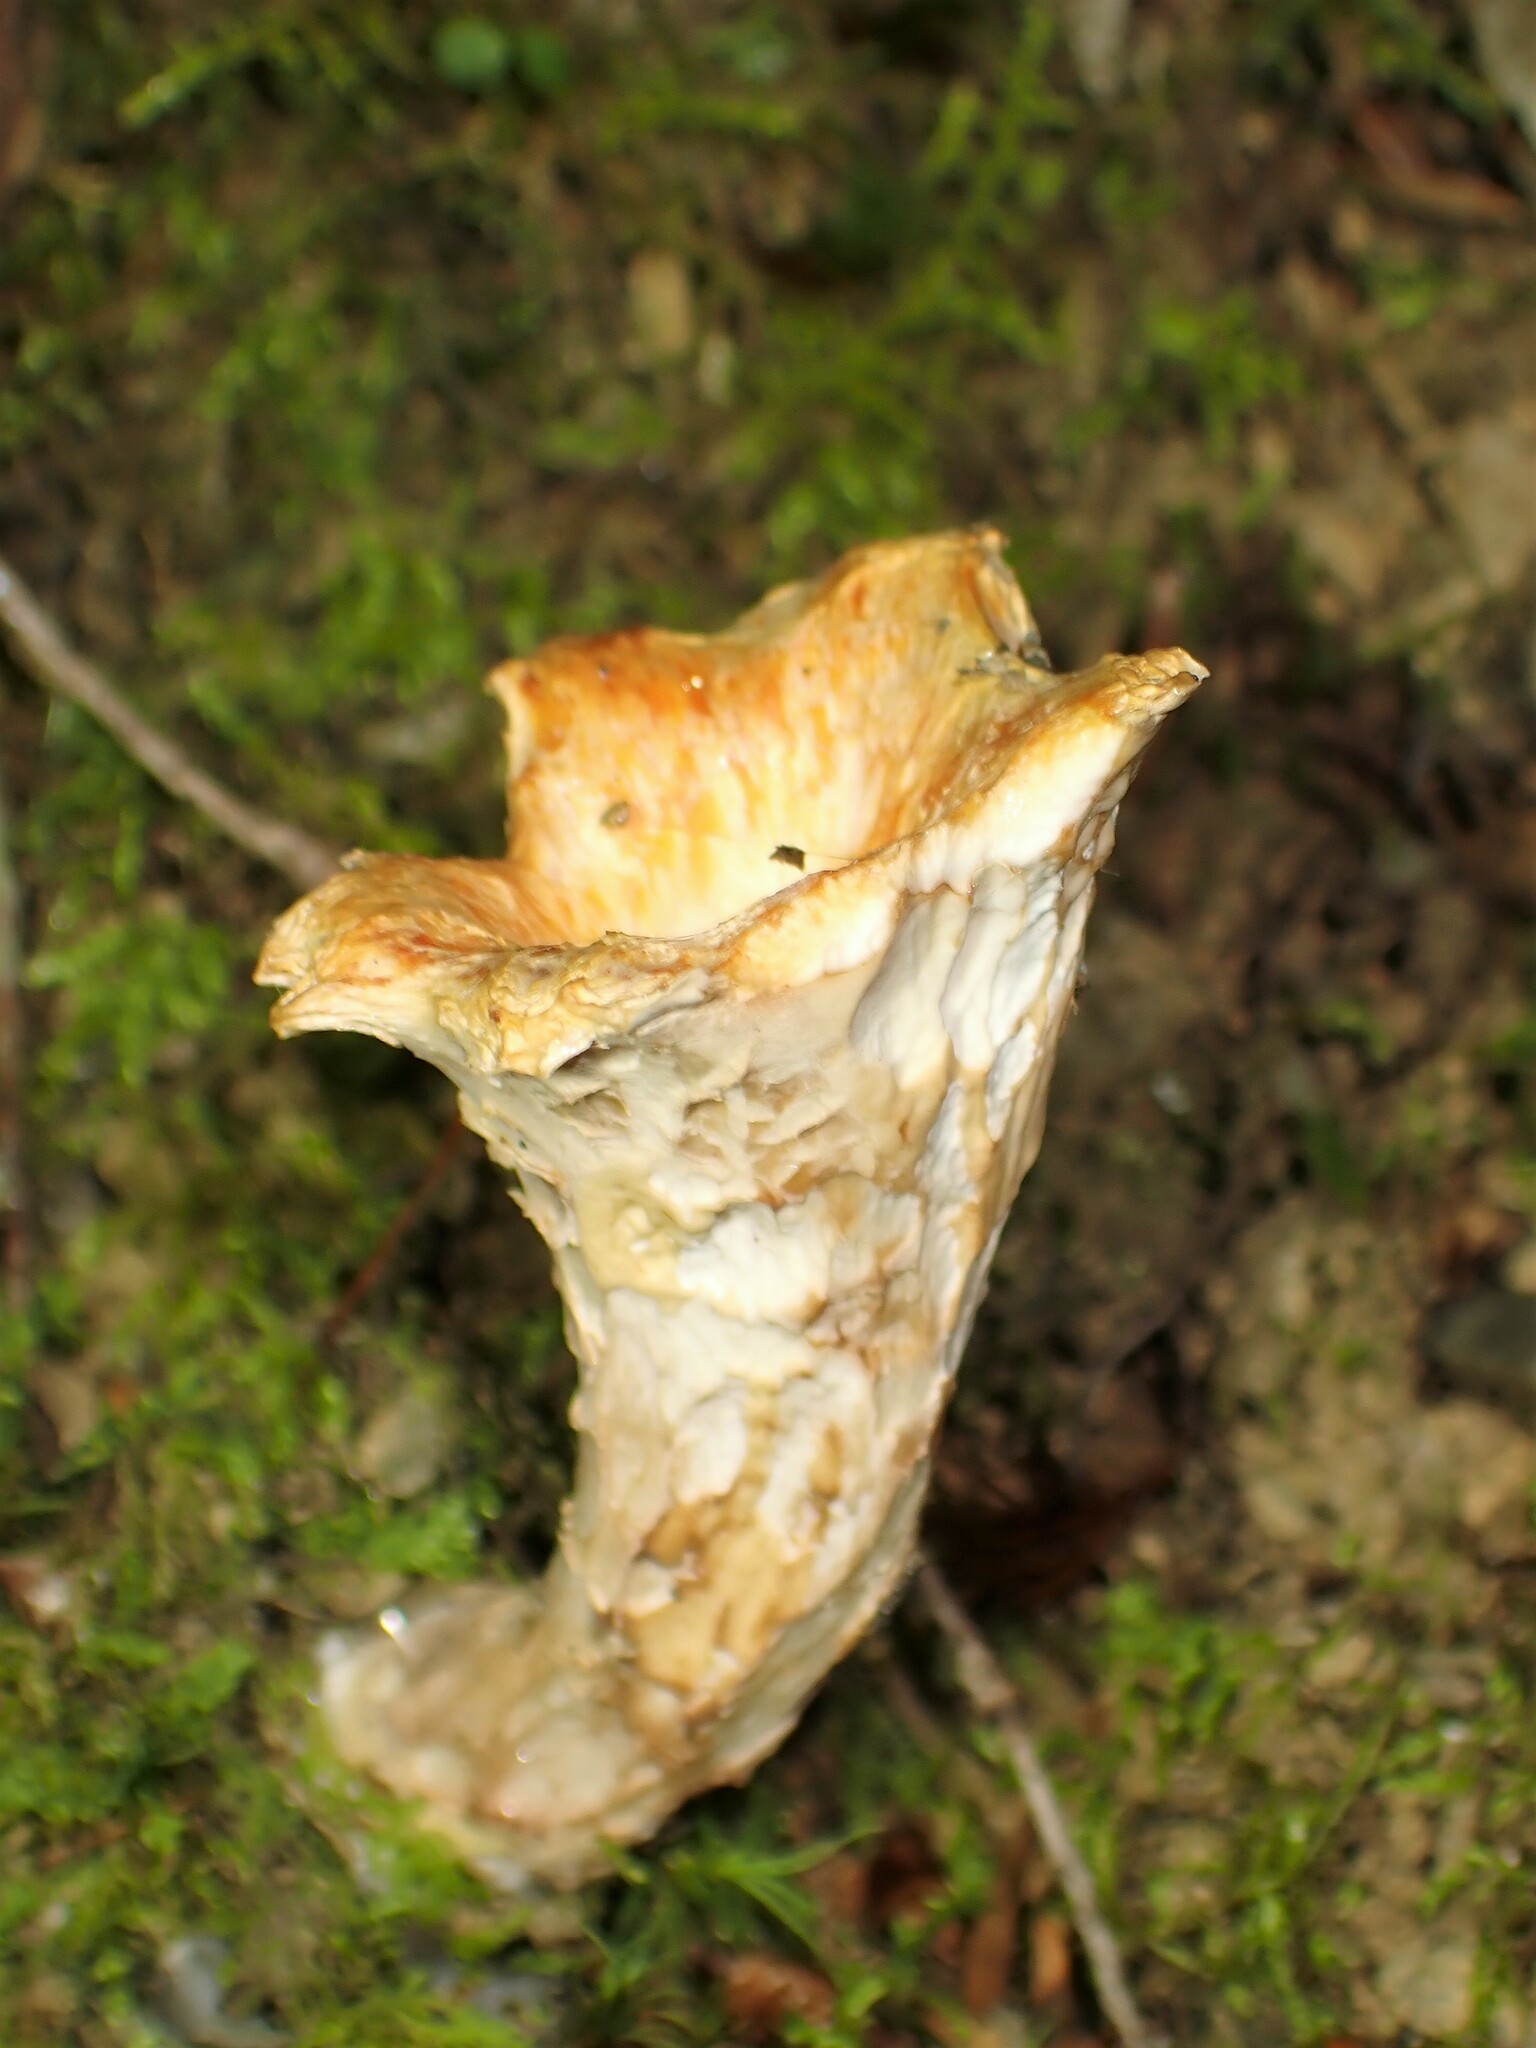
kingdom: Fungi
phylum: Basidiomycota
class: Agaricomycetes
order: Gomphales
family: Gomphaceae
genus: Turbinellus
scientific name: Turbinellus floccosus
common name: Scaly chanterelle
